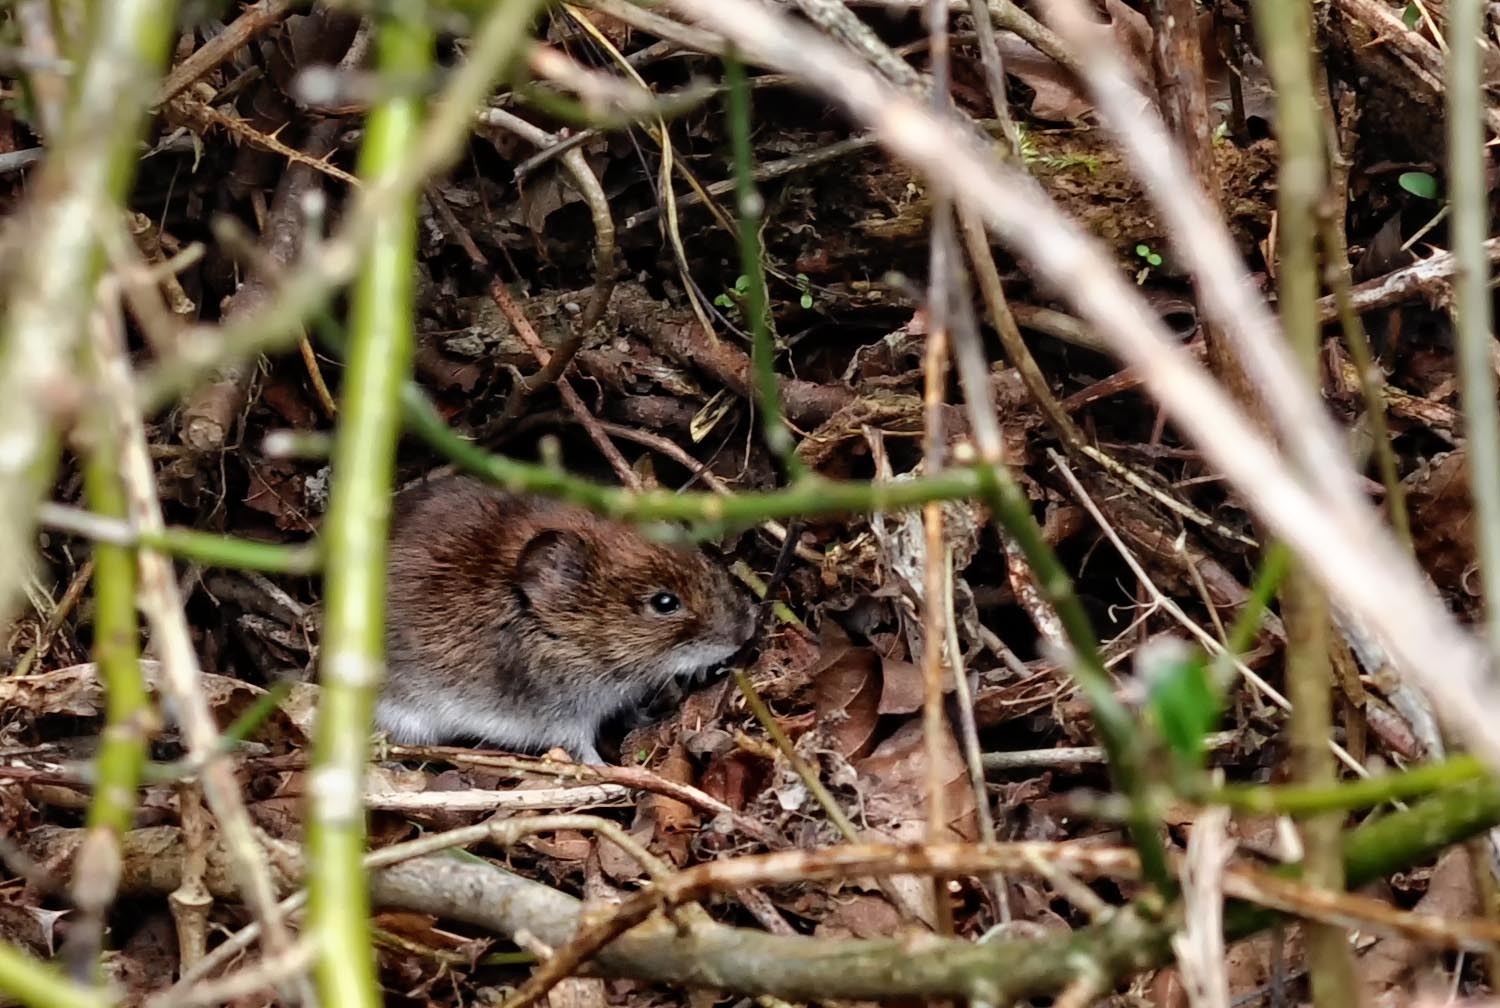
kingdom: Animalia
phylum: Chordata
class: Mammalia
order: Rodentia
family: Cricetidae
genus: Myodes
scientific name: Myodes glareolus
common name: Bank vole
